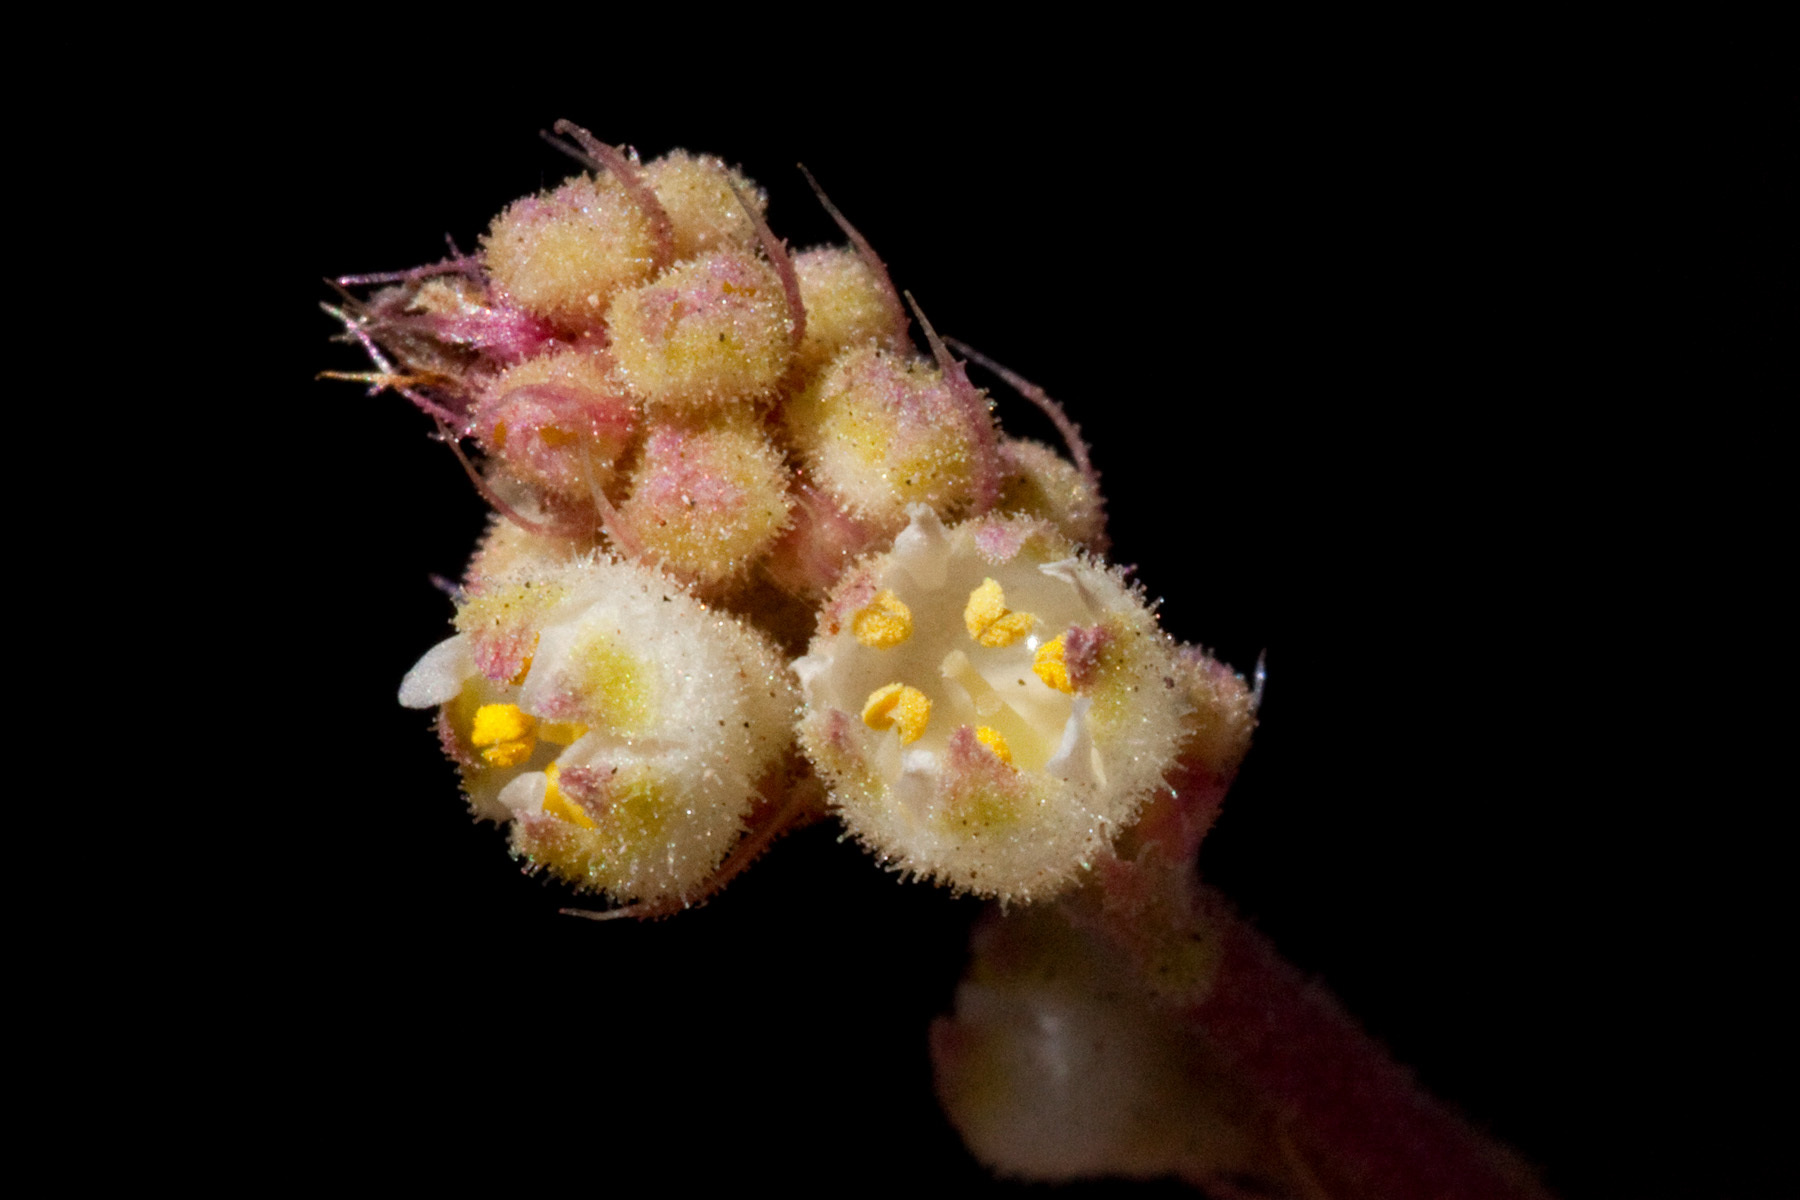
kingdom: Plantae
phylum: Tracheophyta
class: Magnoliopsida
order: Saxifragales
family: Saxifragaceae
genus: Heuchera
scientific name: Heuchera soltisii
